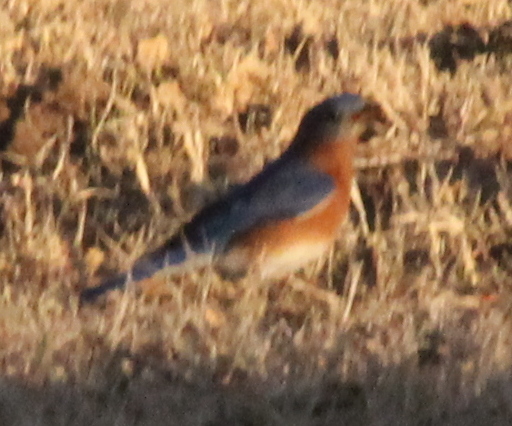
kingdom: Animalia
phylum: Chordata
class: Aves
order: Passeriformes
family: Turdidae
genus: Sialia
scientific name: Sialia sialis
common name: Eastern bluebird
